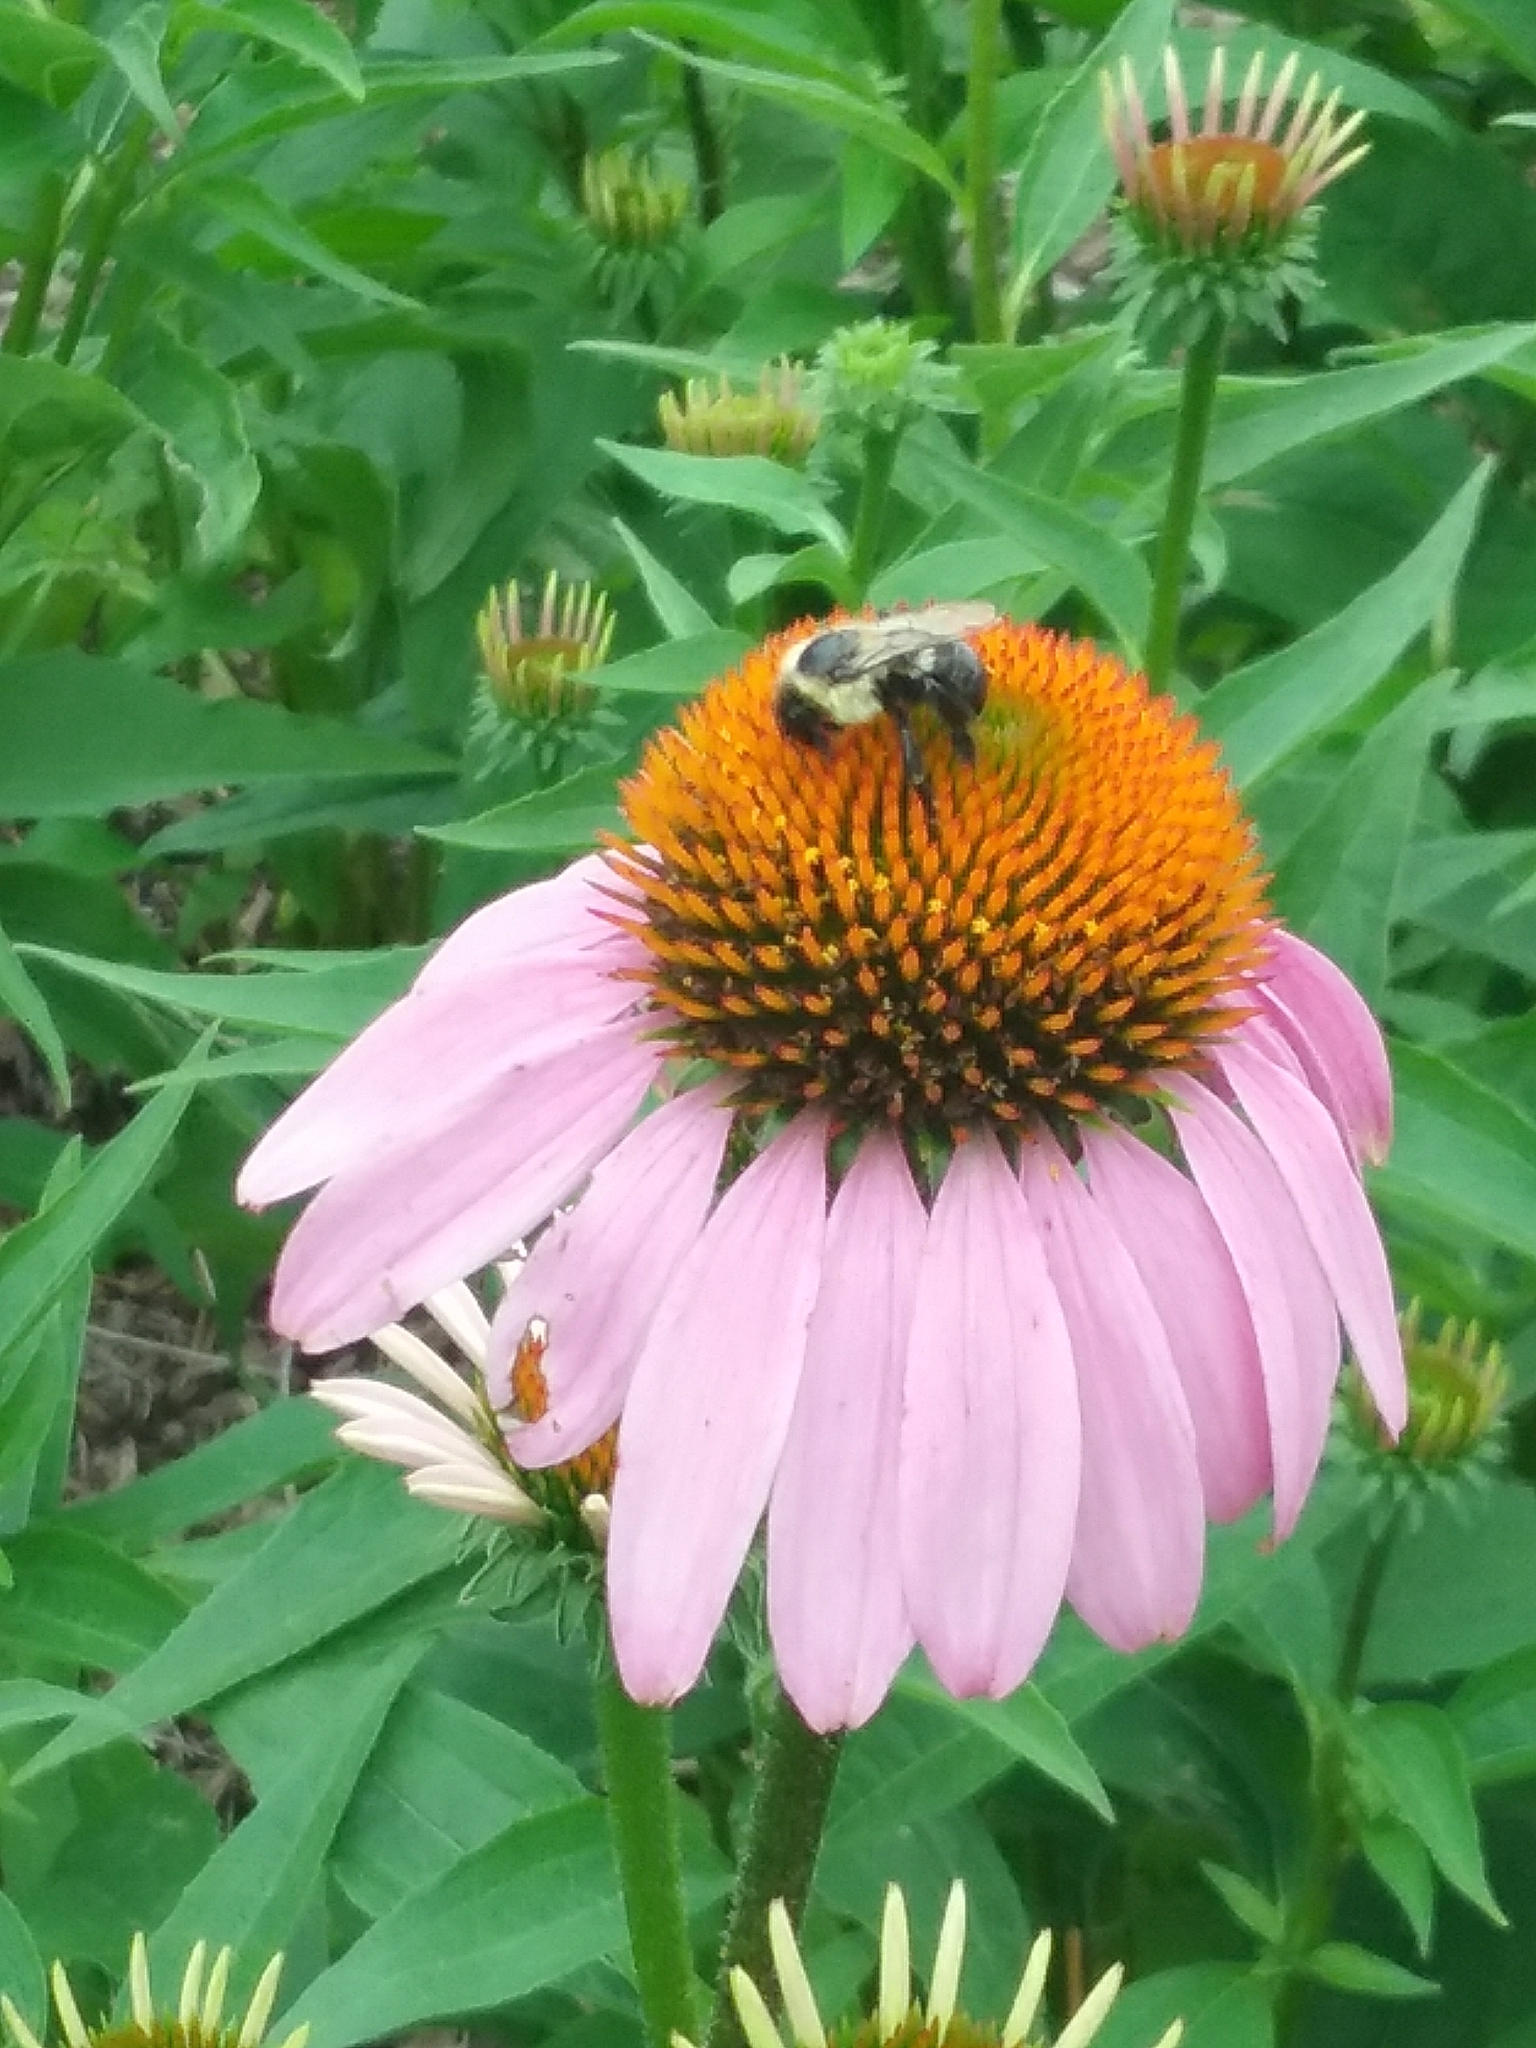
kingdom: Animalia
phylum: Arthropoda
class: Insecta
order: Hymenoptera
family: Apidae
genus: Bombus
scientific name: Bombus impatiens
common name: Common eastern bumble bee
